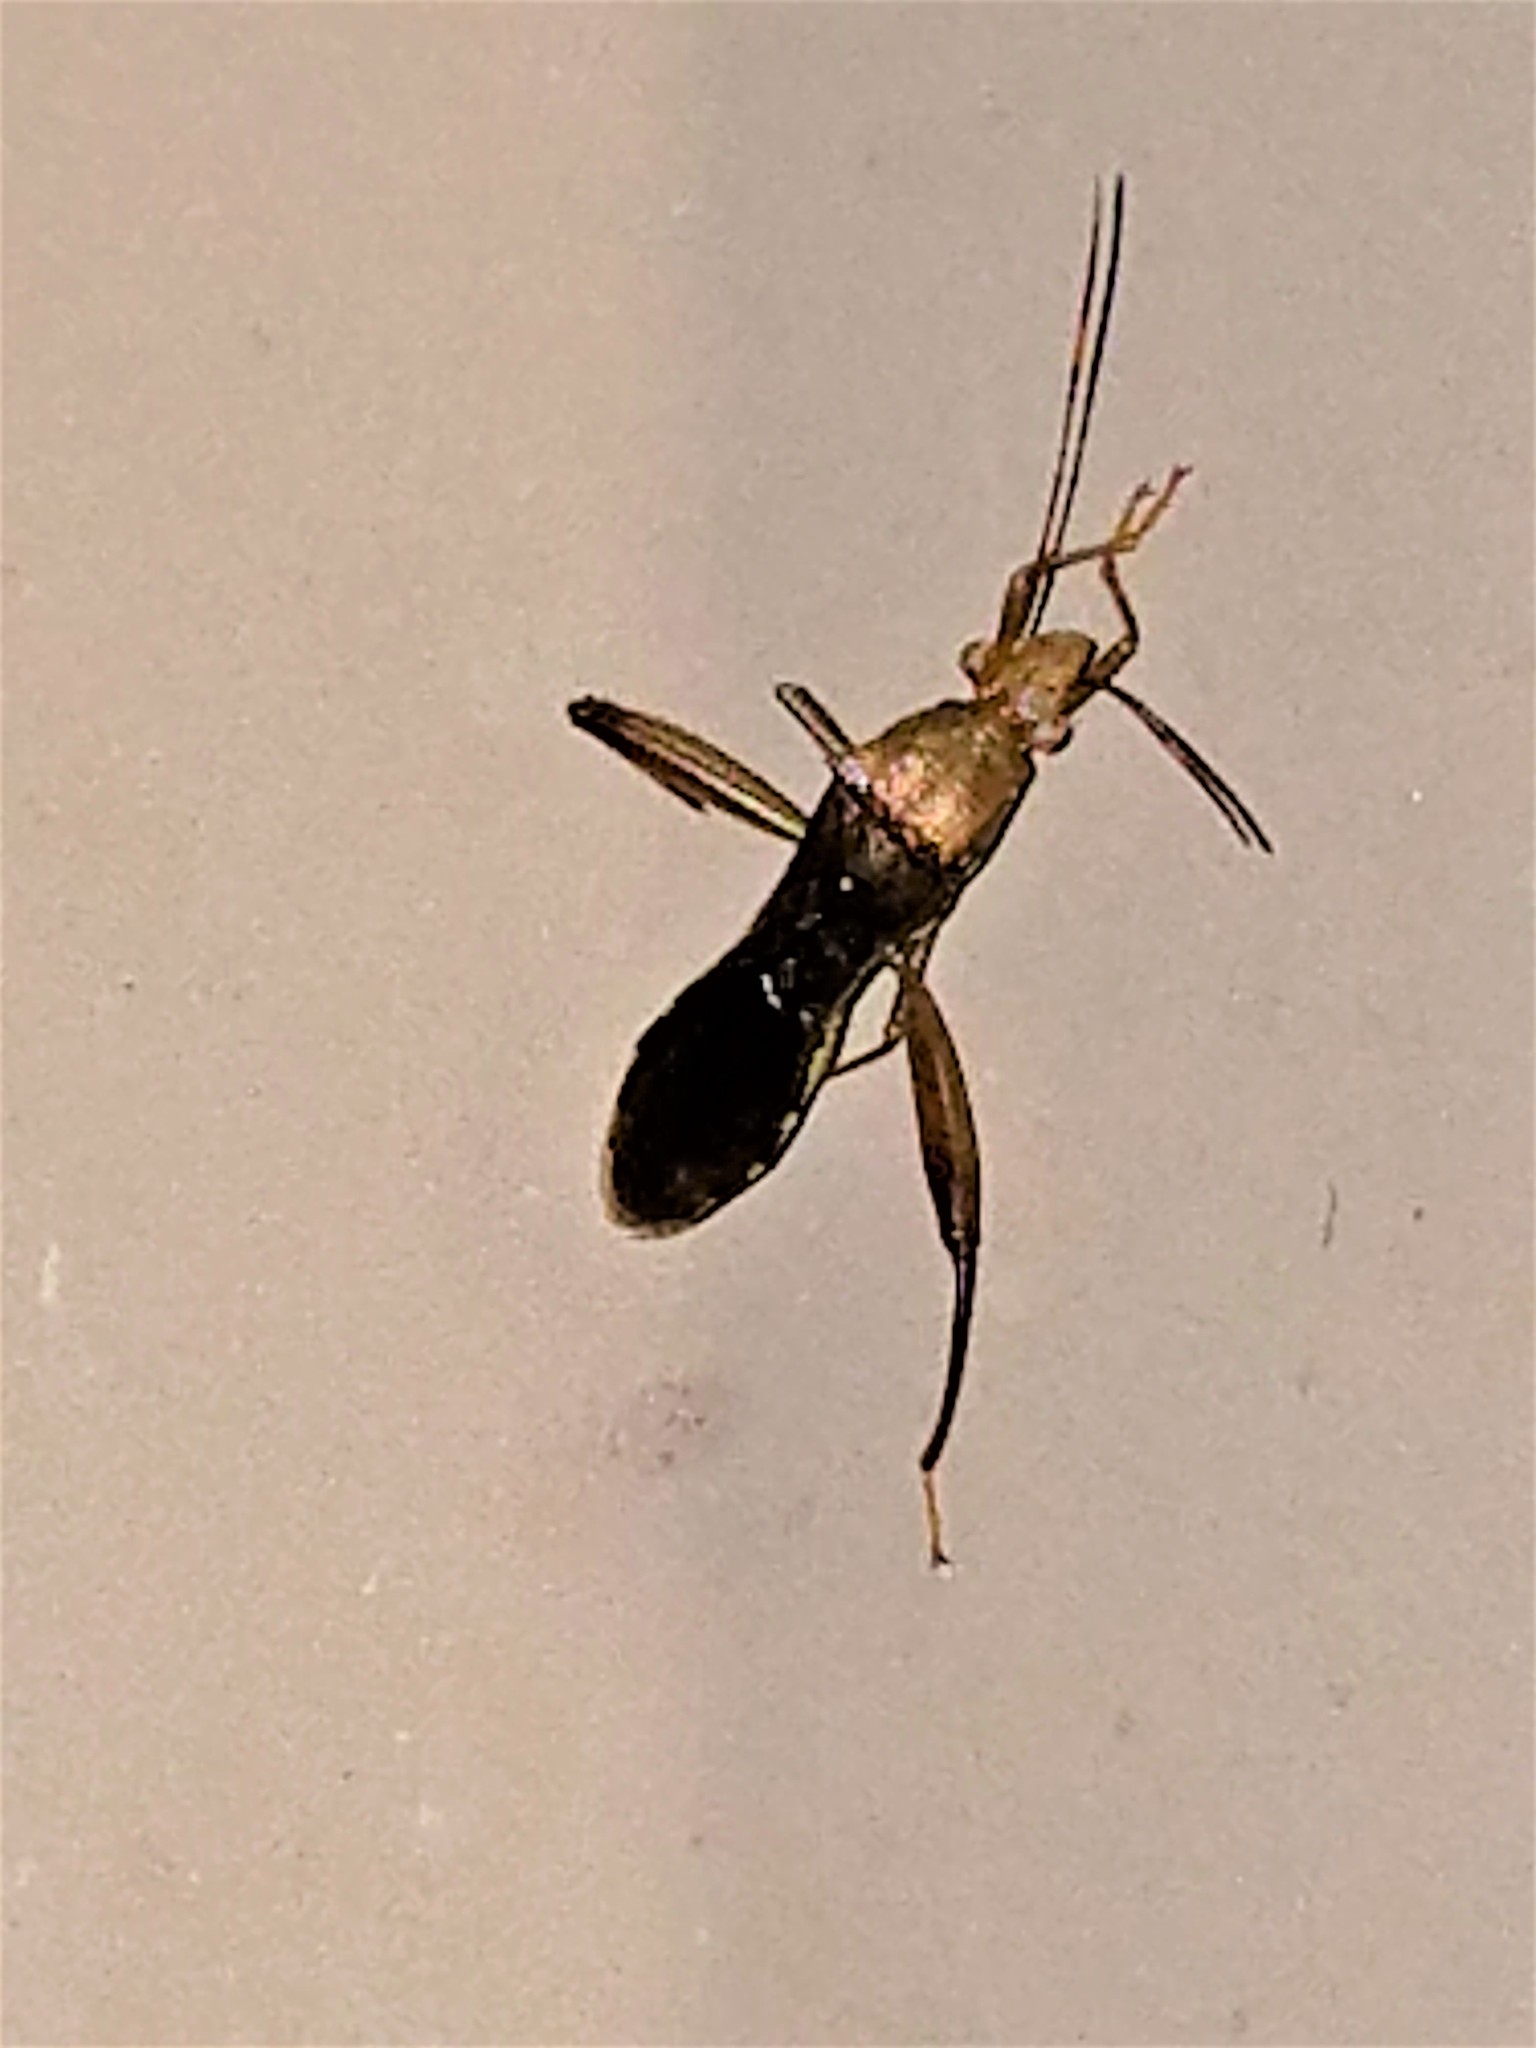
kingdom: Animalia
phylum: Arthropoda
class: Insecta
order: Hemiptera
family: Alydidae
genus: Hyalymenus
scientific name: Hyalymenus tarsatus
